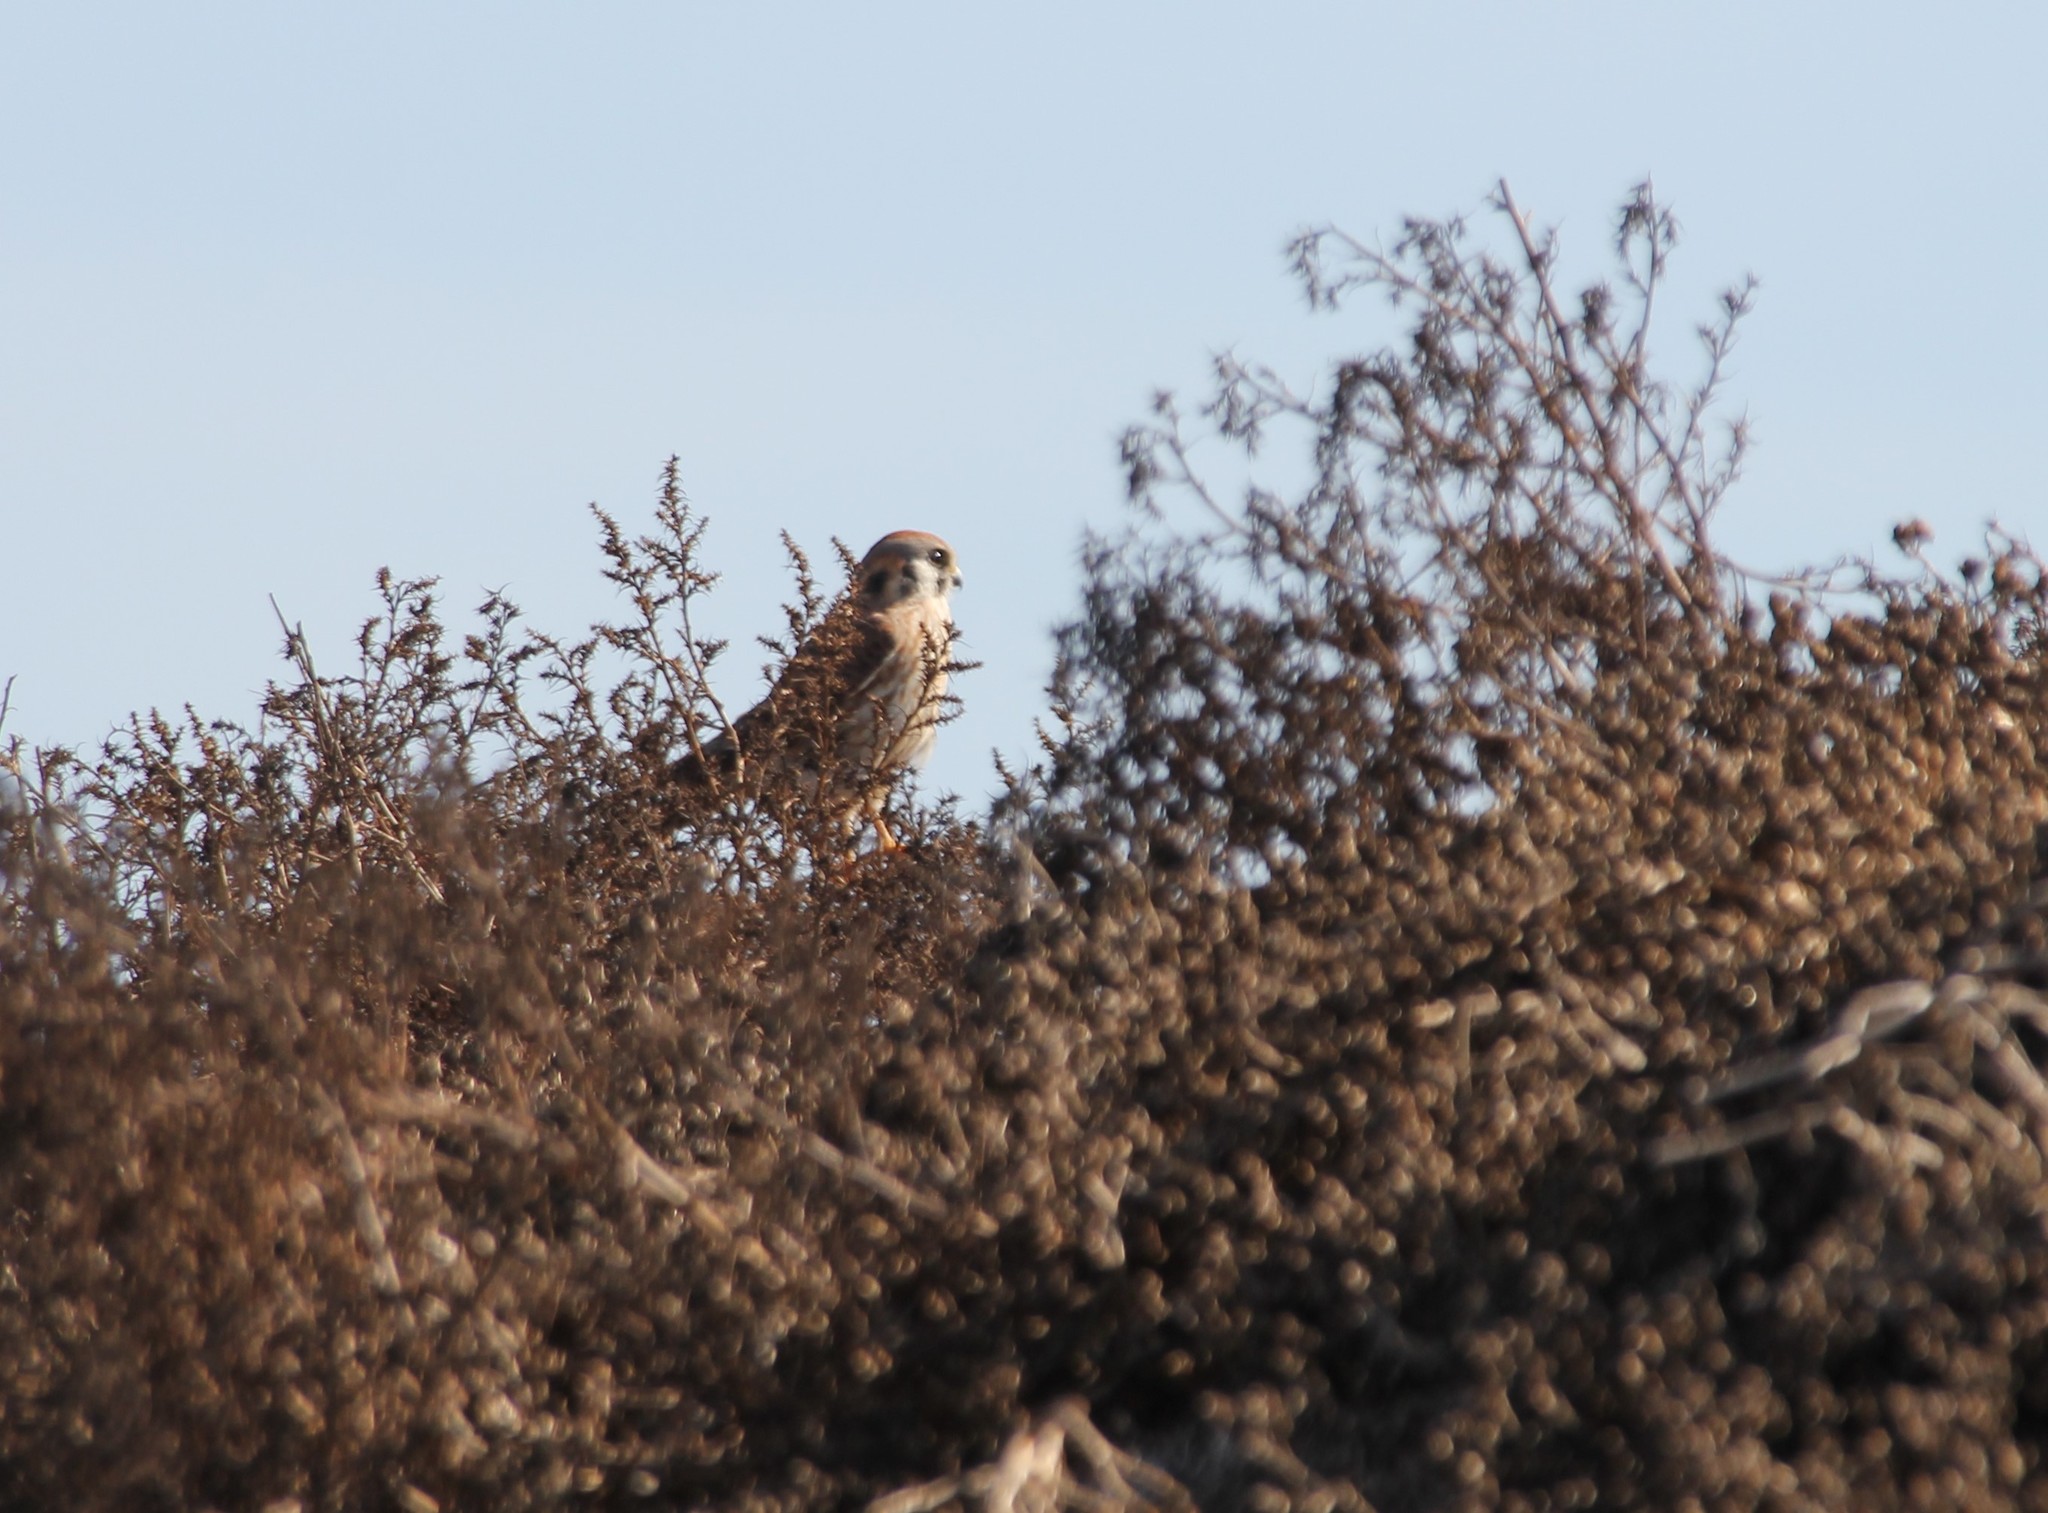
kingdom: Animalia
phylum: Chordata
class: Aves
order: Falconiformes
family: Falconidae
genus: Falco
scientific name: Falco sparverius
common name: American kestrel
